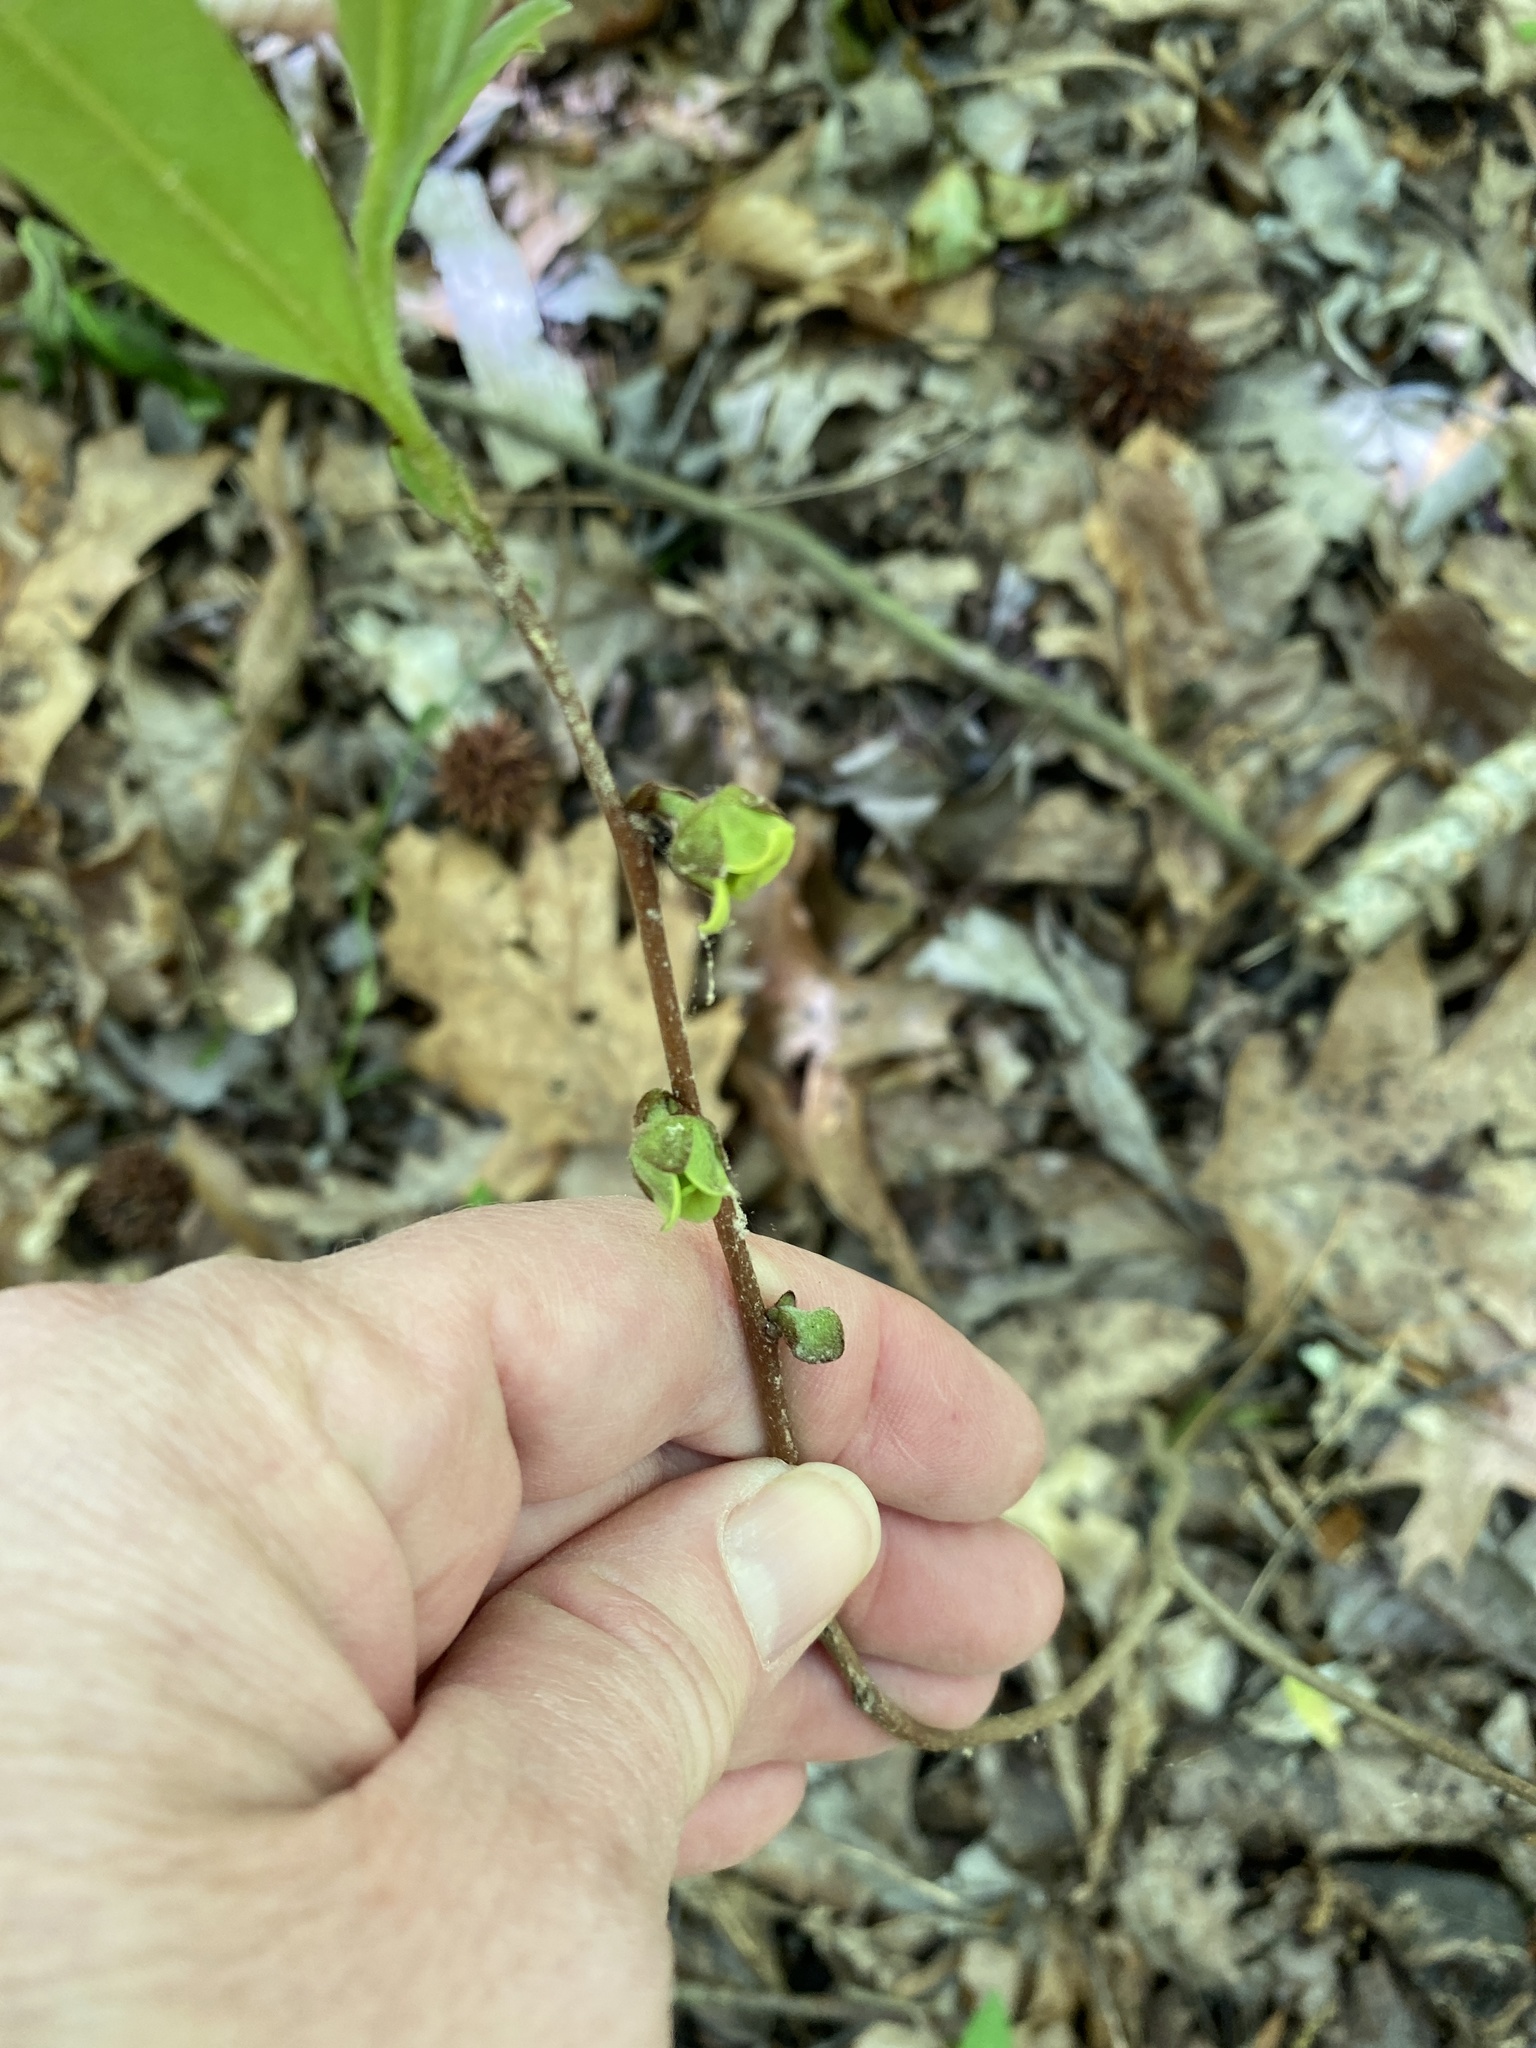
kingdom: Plantae
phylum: Tracheophyta
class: Magnoliopsida
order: Magnoliales
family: Annonaceae
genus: Asimina
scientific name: Asimina parviflora
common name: Dwarf pawpaw
